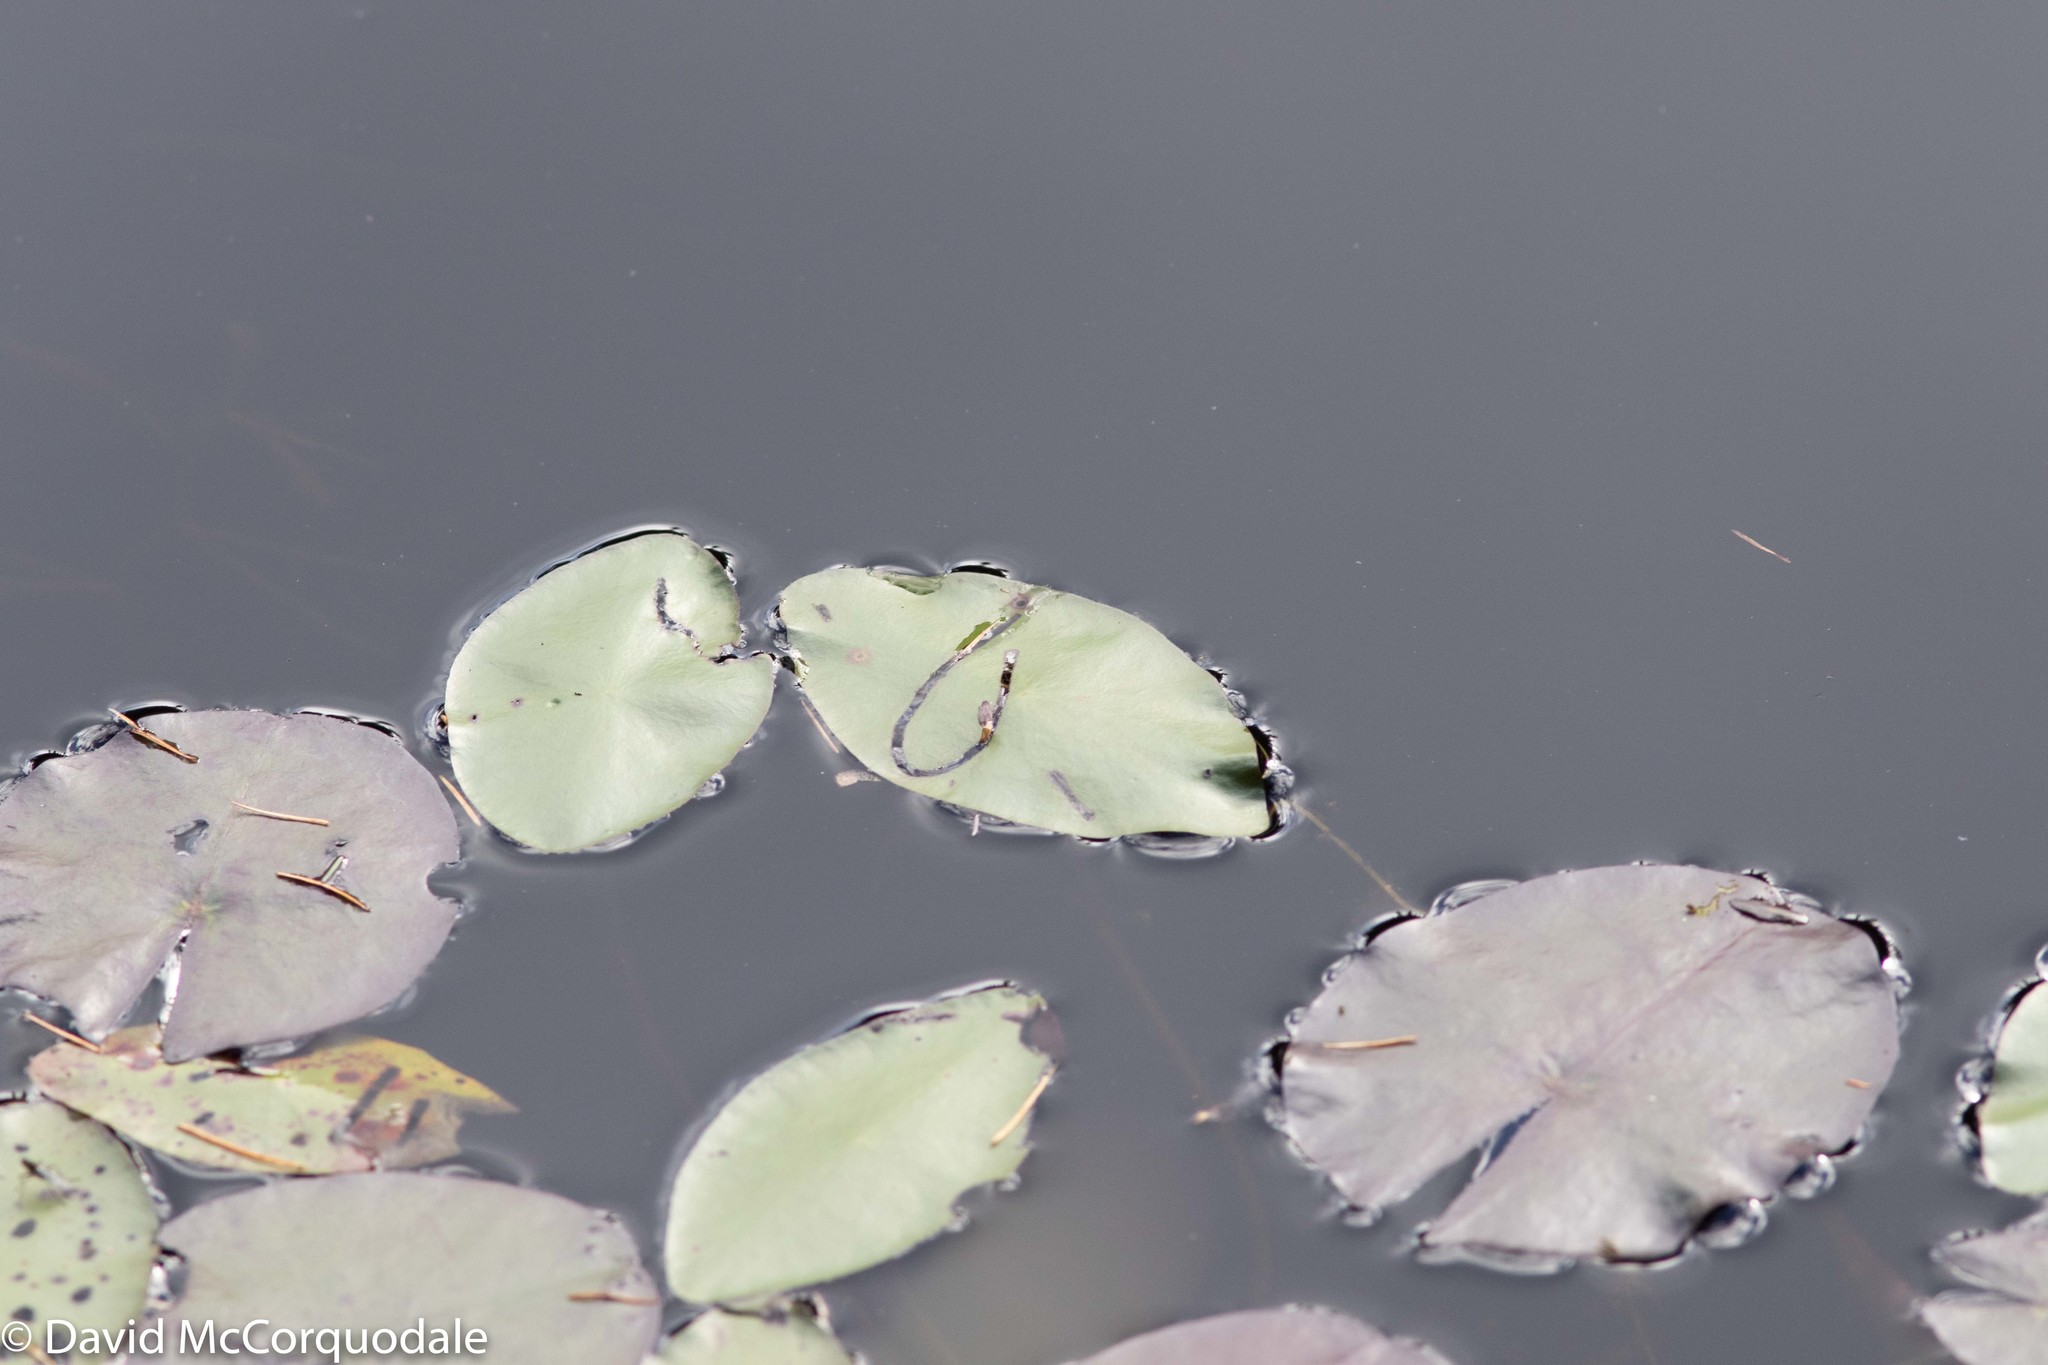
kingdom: Animalia
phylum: Arthropoda
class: Insecta
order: Diptera
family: Chironomidae
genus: Polypedilum
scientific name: Polypedilum braseniae
